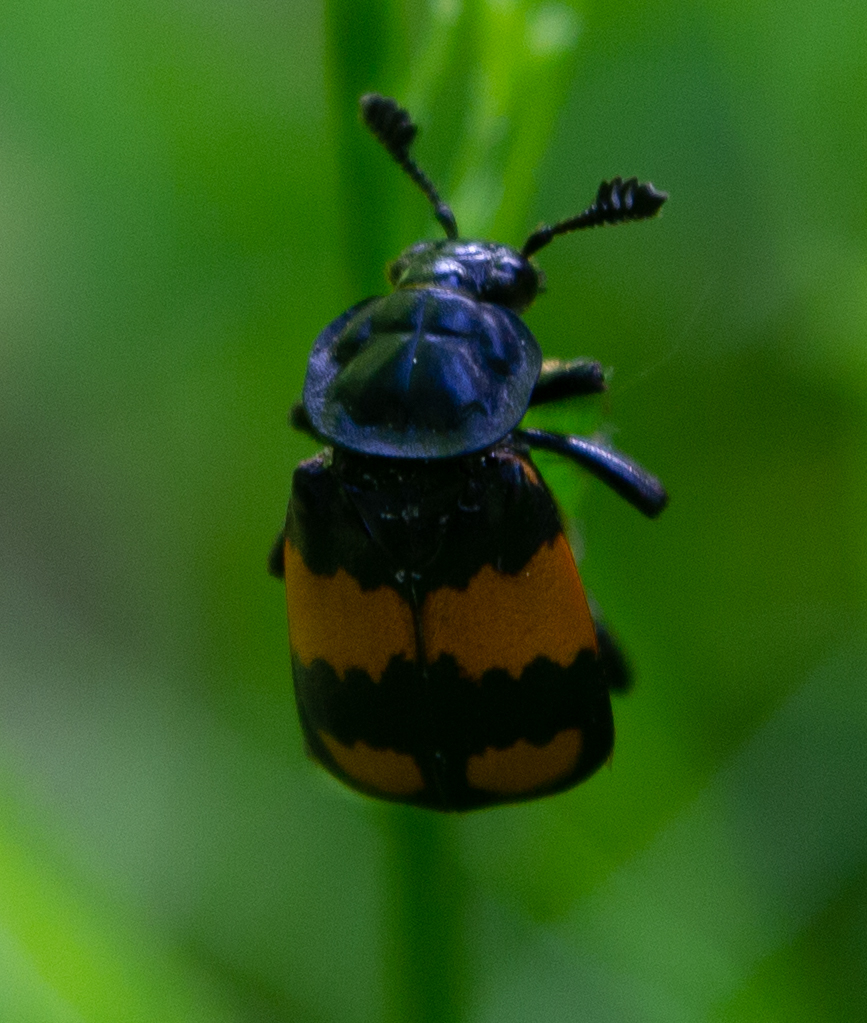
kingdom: Animalia
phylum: Arthropoda
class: Insecta
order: Coleoptera
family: Staphylinidae
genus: Nicrophorus
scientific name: Nicrophorus vespilloides
